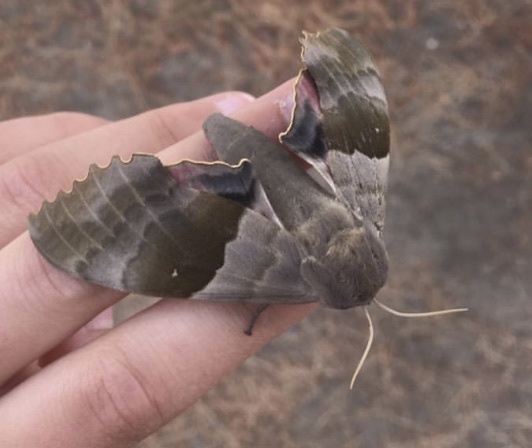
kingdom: Animalia
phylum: Arthropoda
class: Insecta
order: Lepidoptera
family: Sphingidae
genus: Pachysphinx
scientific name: Pachysphinx modesta
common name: Big poplar sphinx
